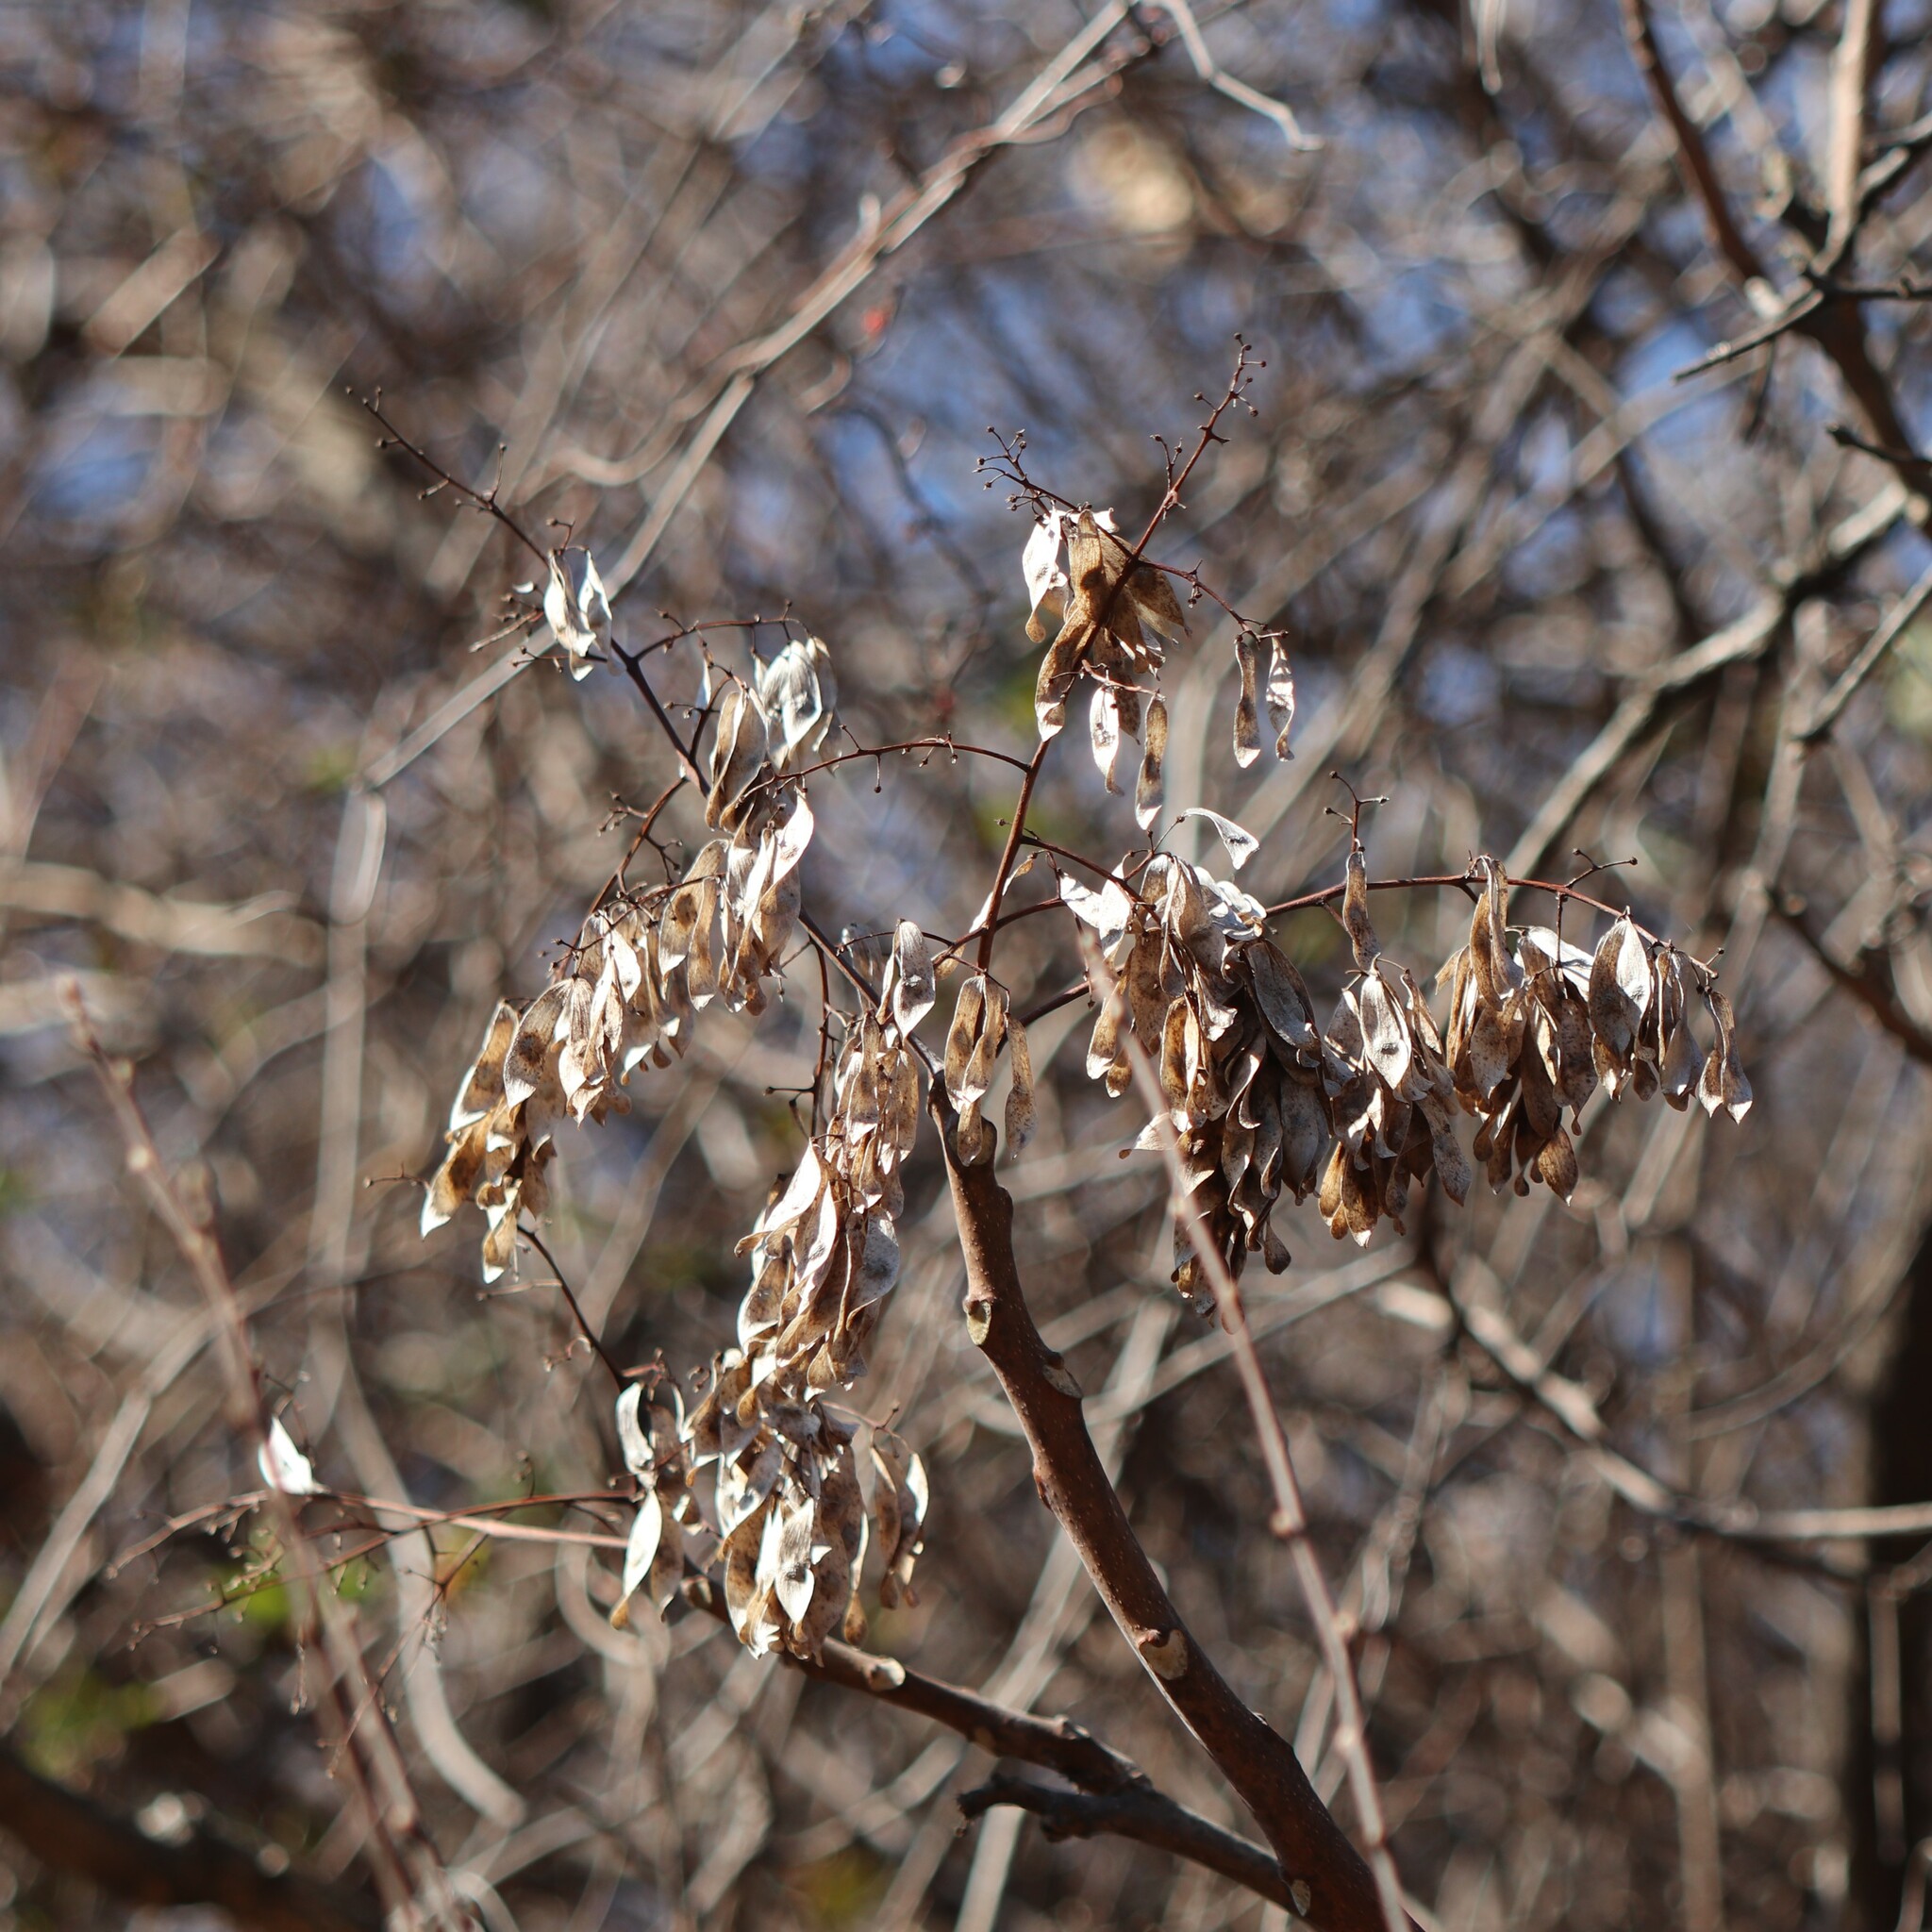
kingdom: Plantae
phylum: Tracheophyta
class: Magnoliopsida
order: Sapindales
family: Simaroubaceae
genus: Ailanthus
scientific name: Ailanthus altissima
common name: Tree-of-heaven
